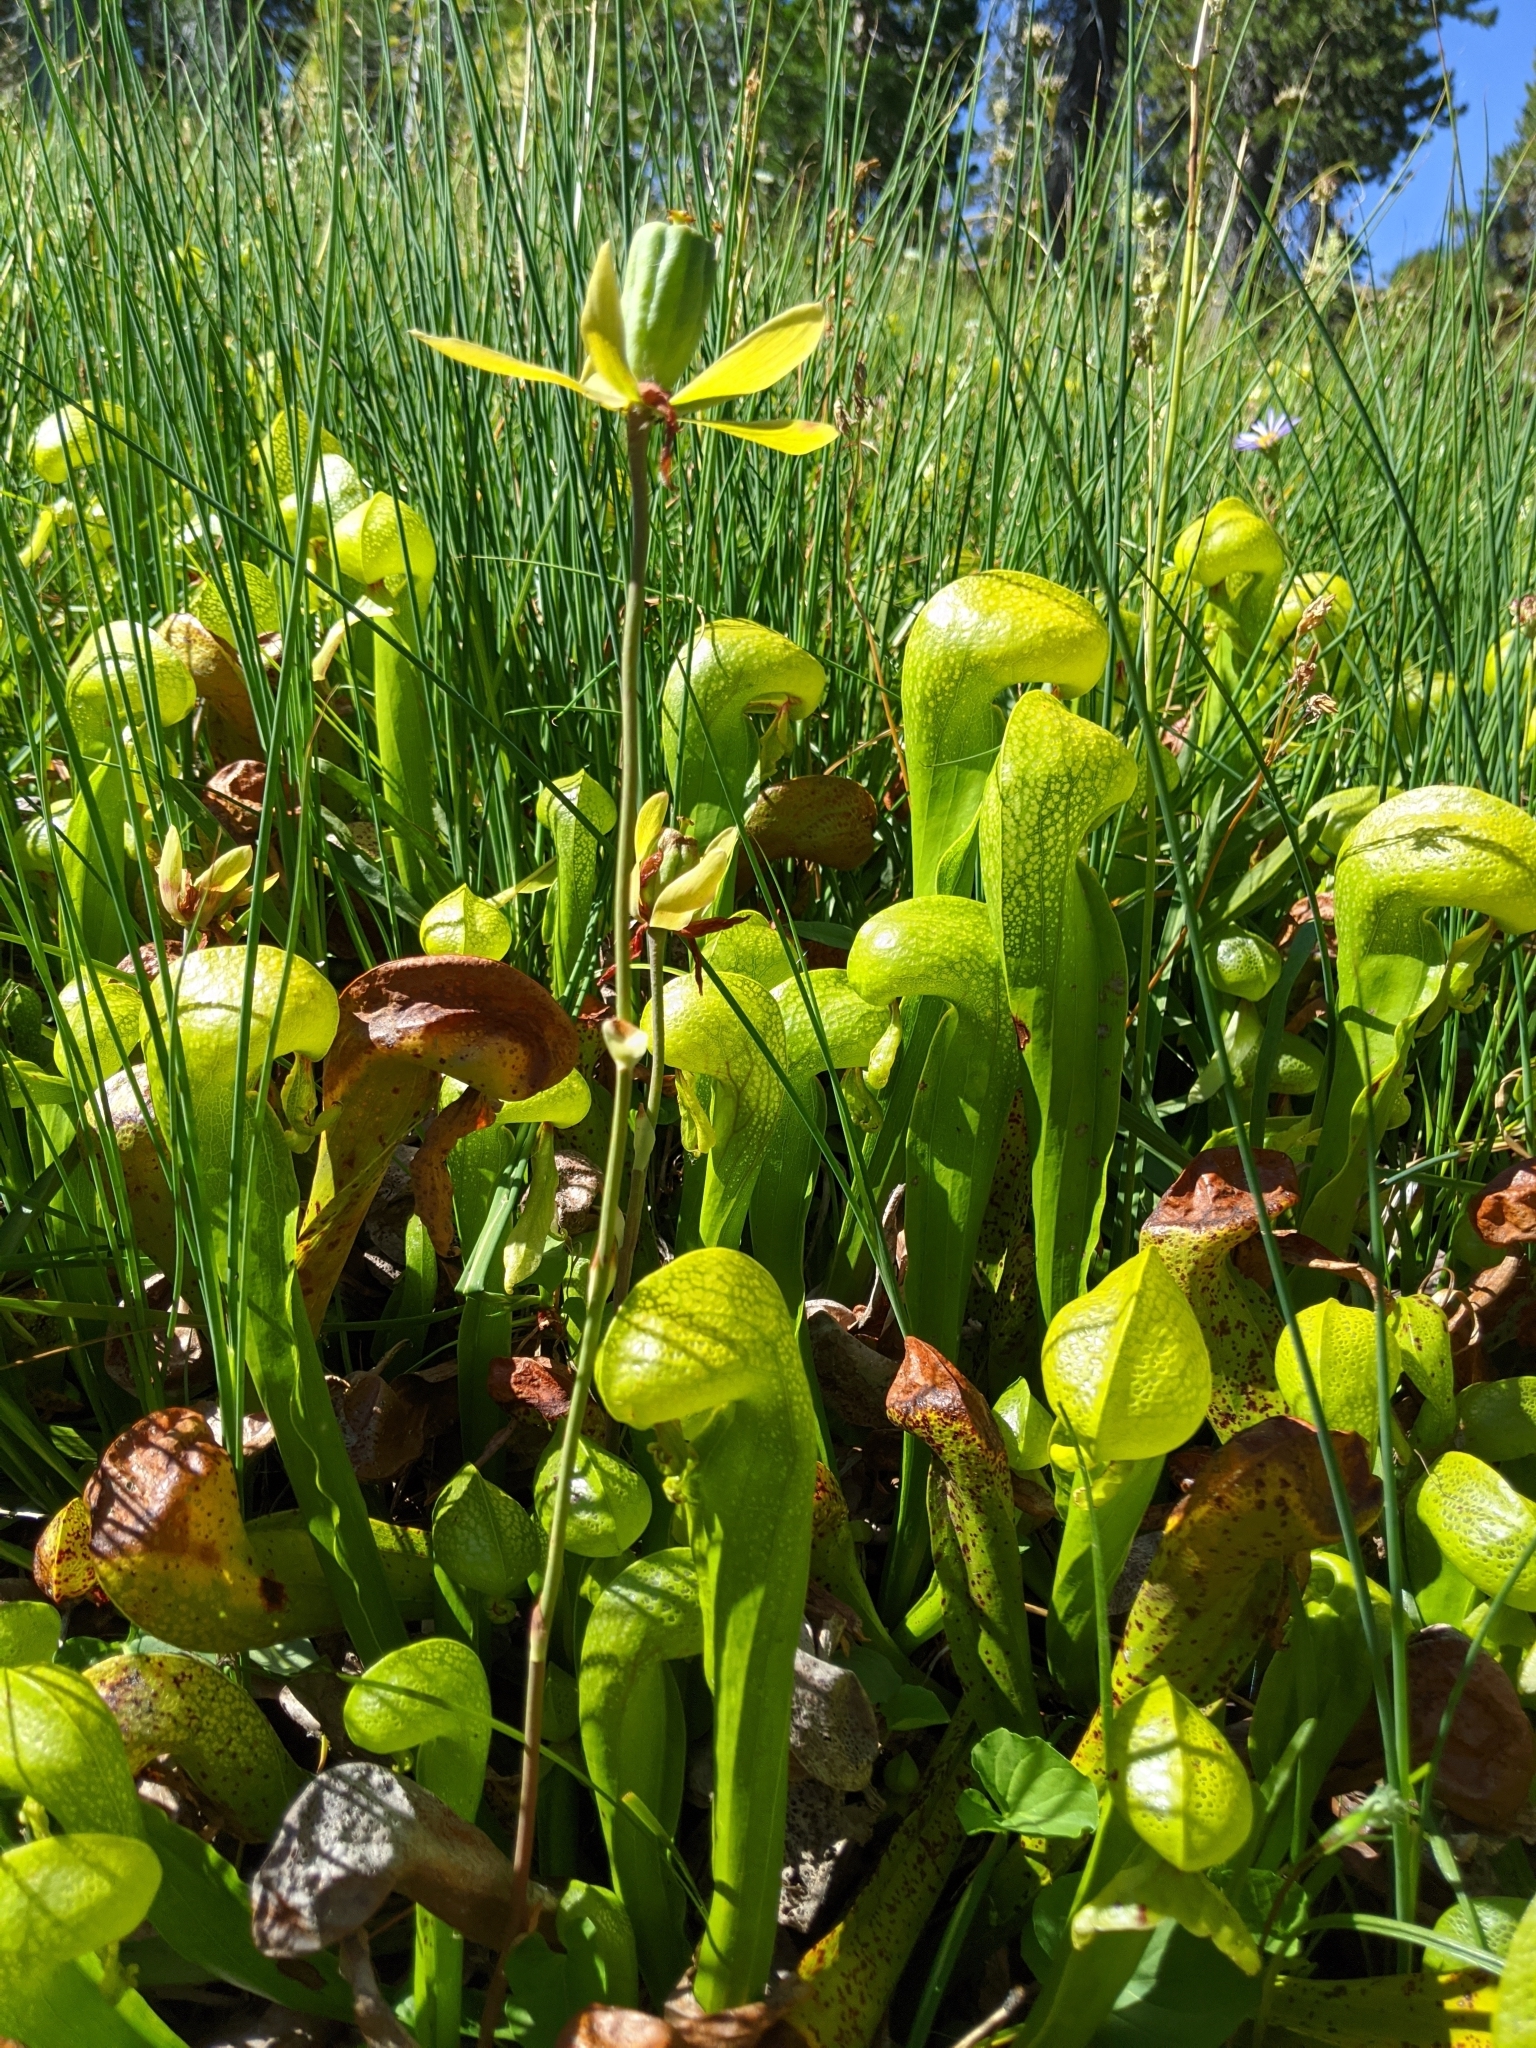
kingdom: Plantae
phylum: Tracheophyta
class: Magnoliopsida
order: Ericales
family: Sarraceniaceae
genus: Darlingtonia
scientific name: Darlingtonia californica
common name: California pitcher plant
